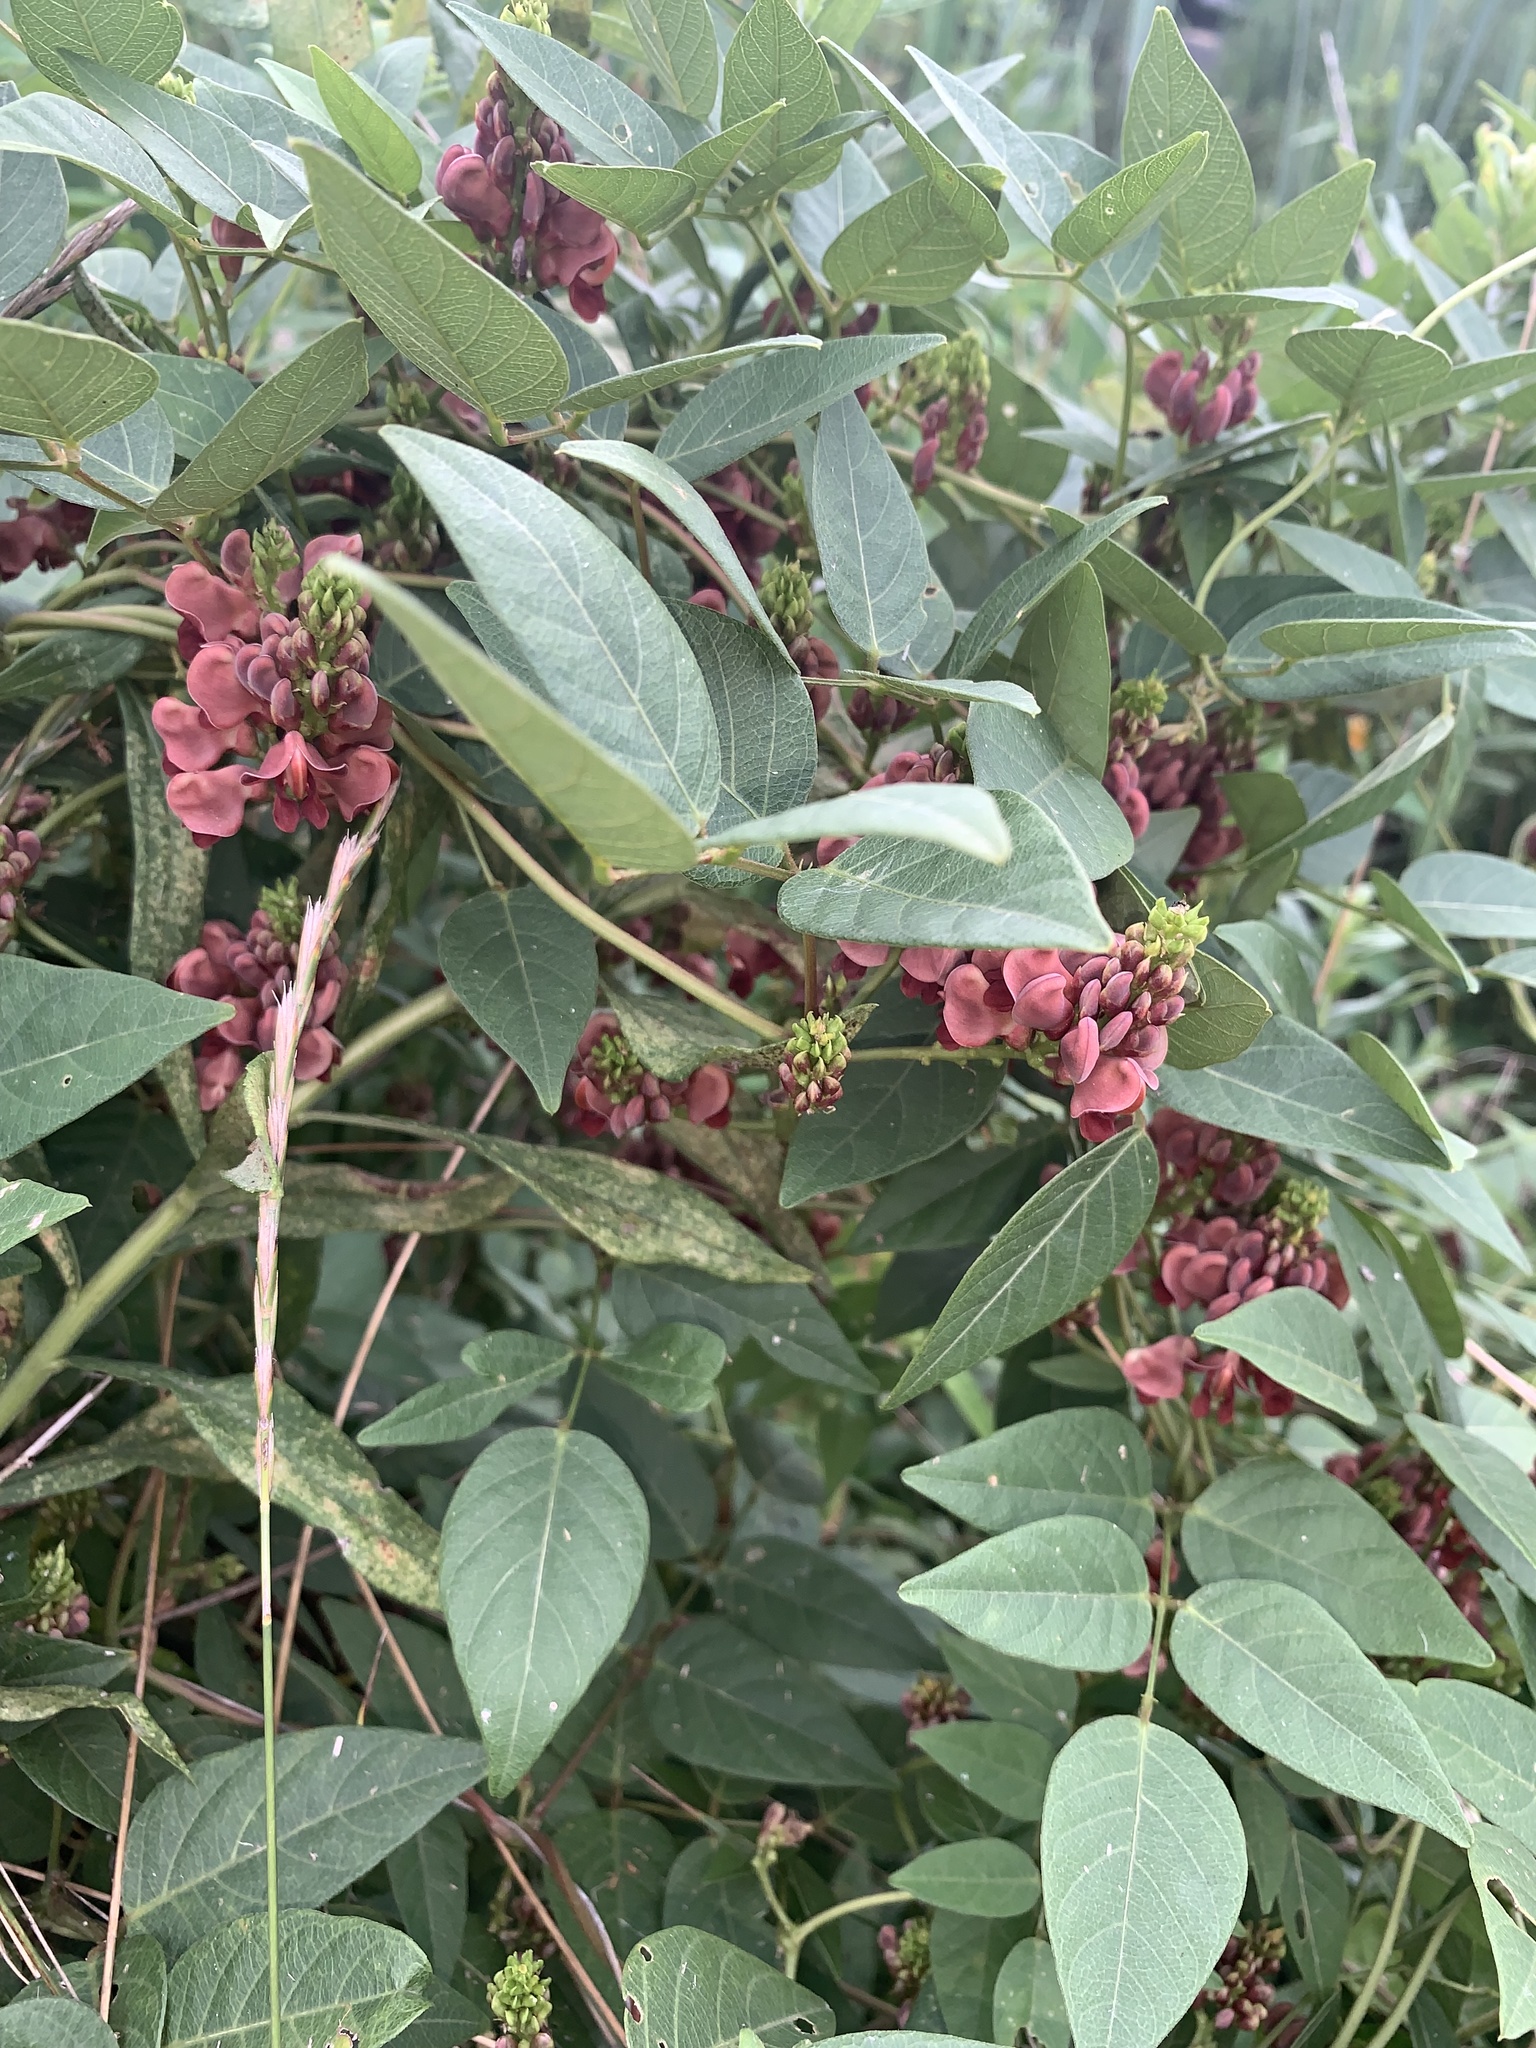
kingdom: Plantae
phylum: Tracheophyta
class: Magnoliopsida
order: Fabales
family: Fabaceae
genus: Apios
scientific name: Apios americana
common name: American potato-bean
